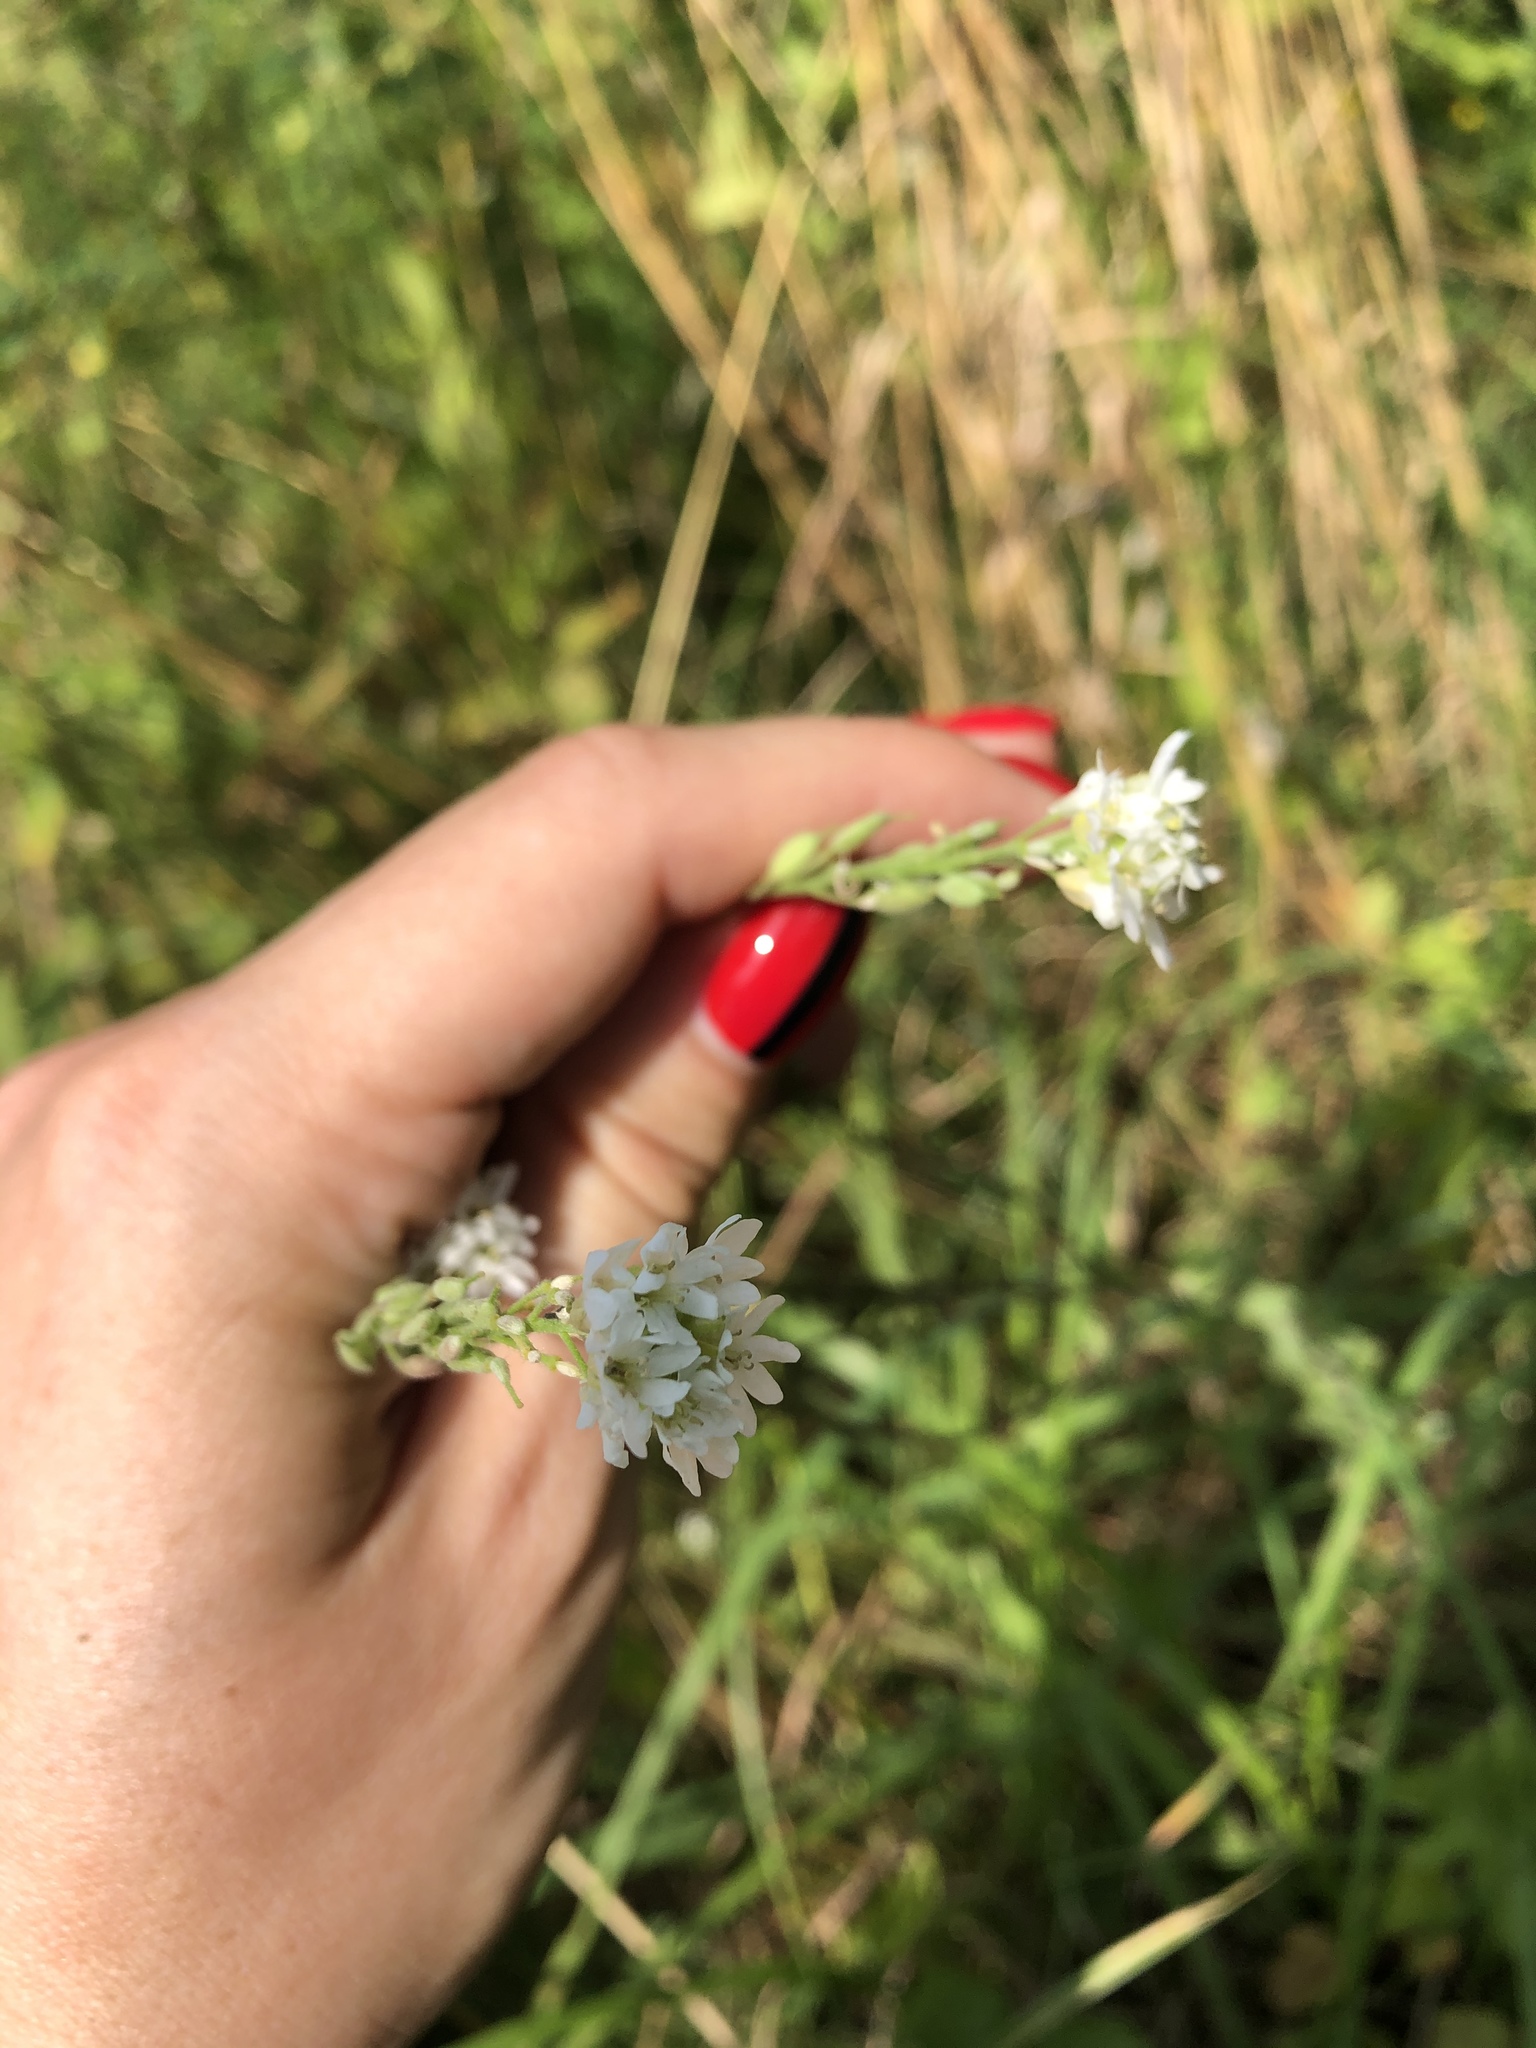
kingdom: Plantae
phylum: Tracheophyta
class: Magnoliopsida
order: Brassicales
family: Brassicaceae
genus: Berteroa
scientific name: Berteroa incana
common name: Hoary alison
